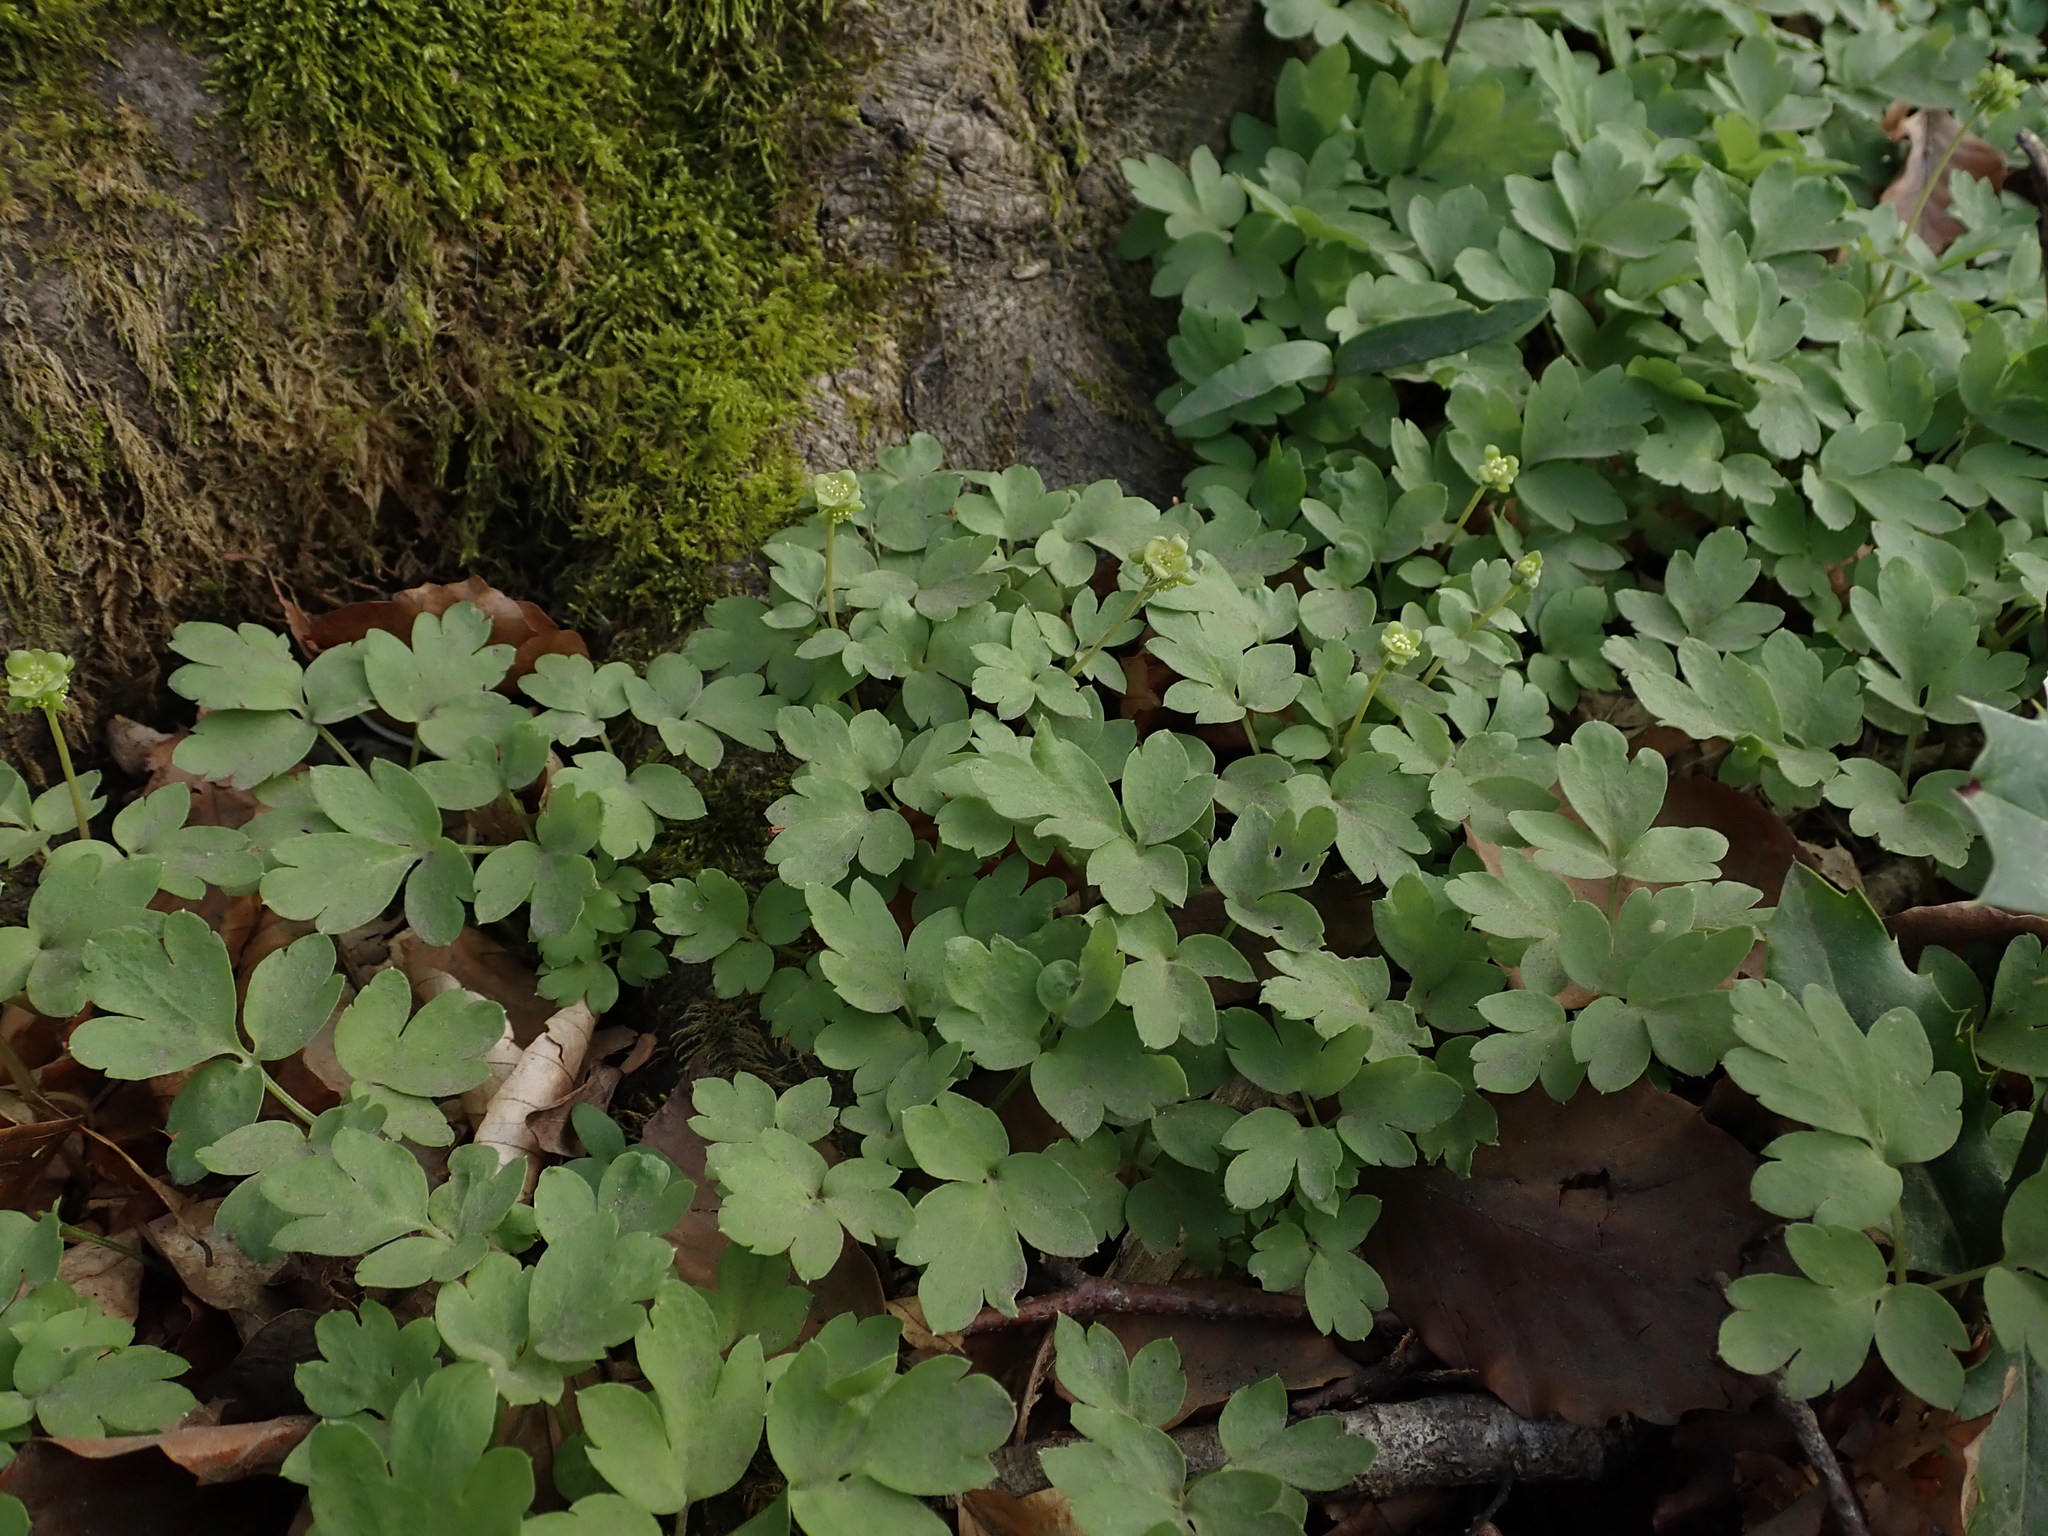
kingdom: Plantae
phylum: Tracheophyta
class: Magnoliopsida
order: Dipsacales
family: Viburnaceae
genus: Adoxa
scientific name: Adoxa moschatellina
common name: Moschatel
